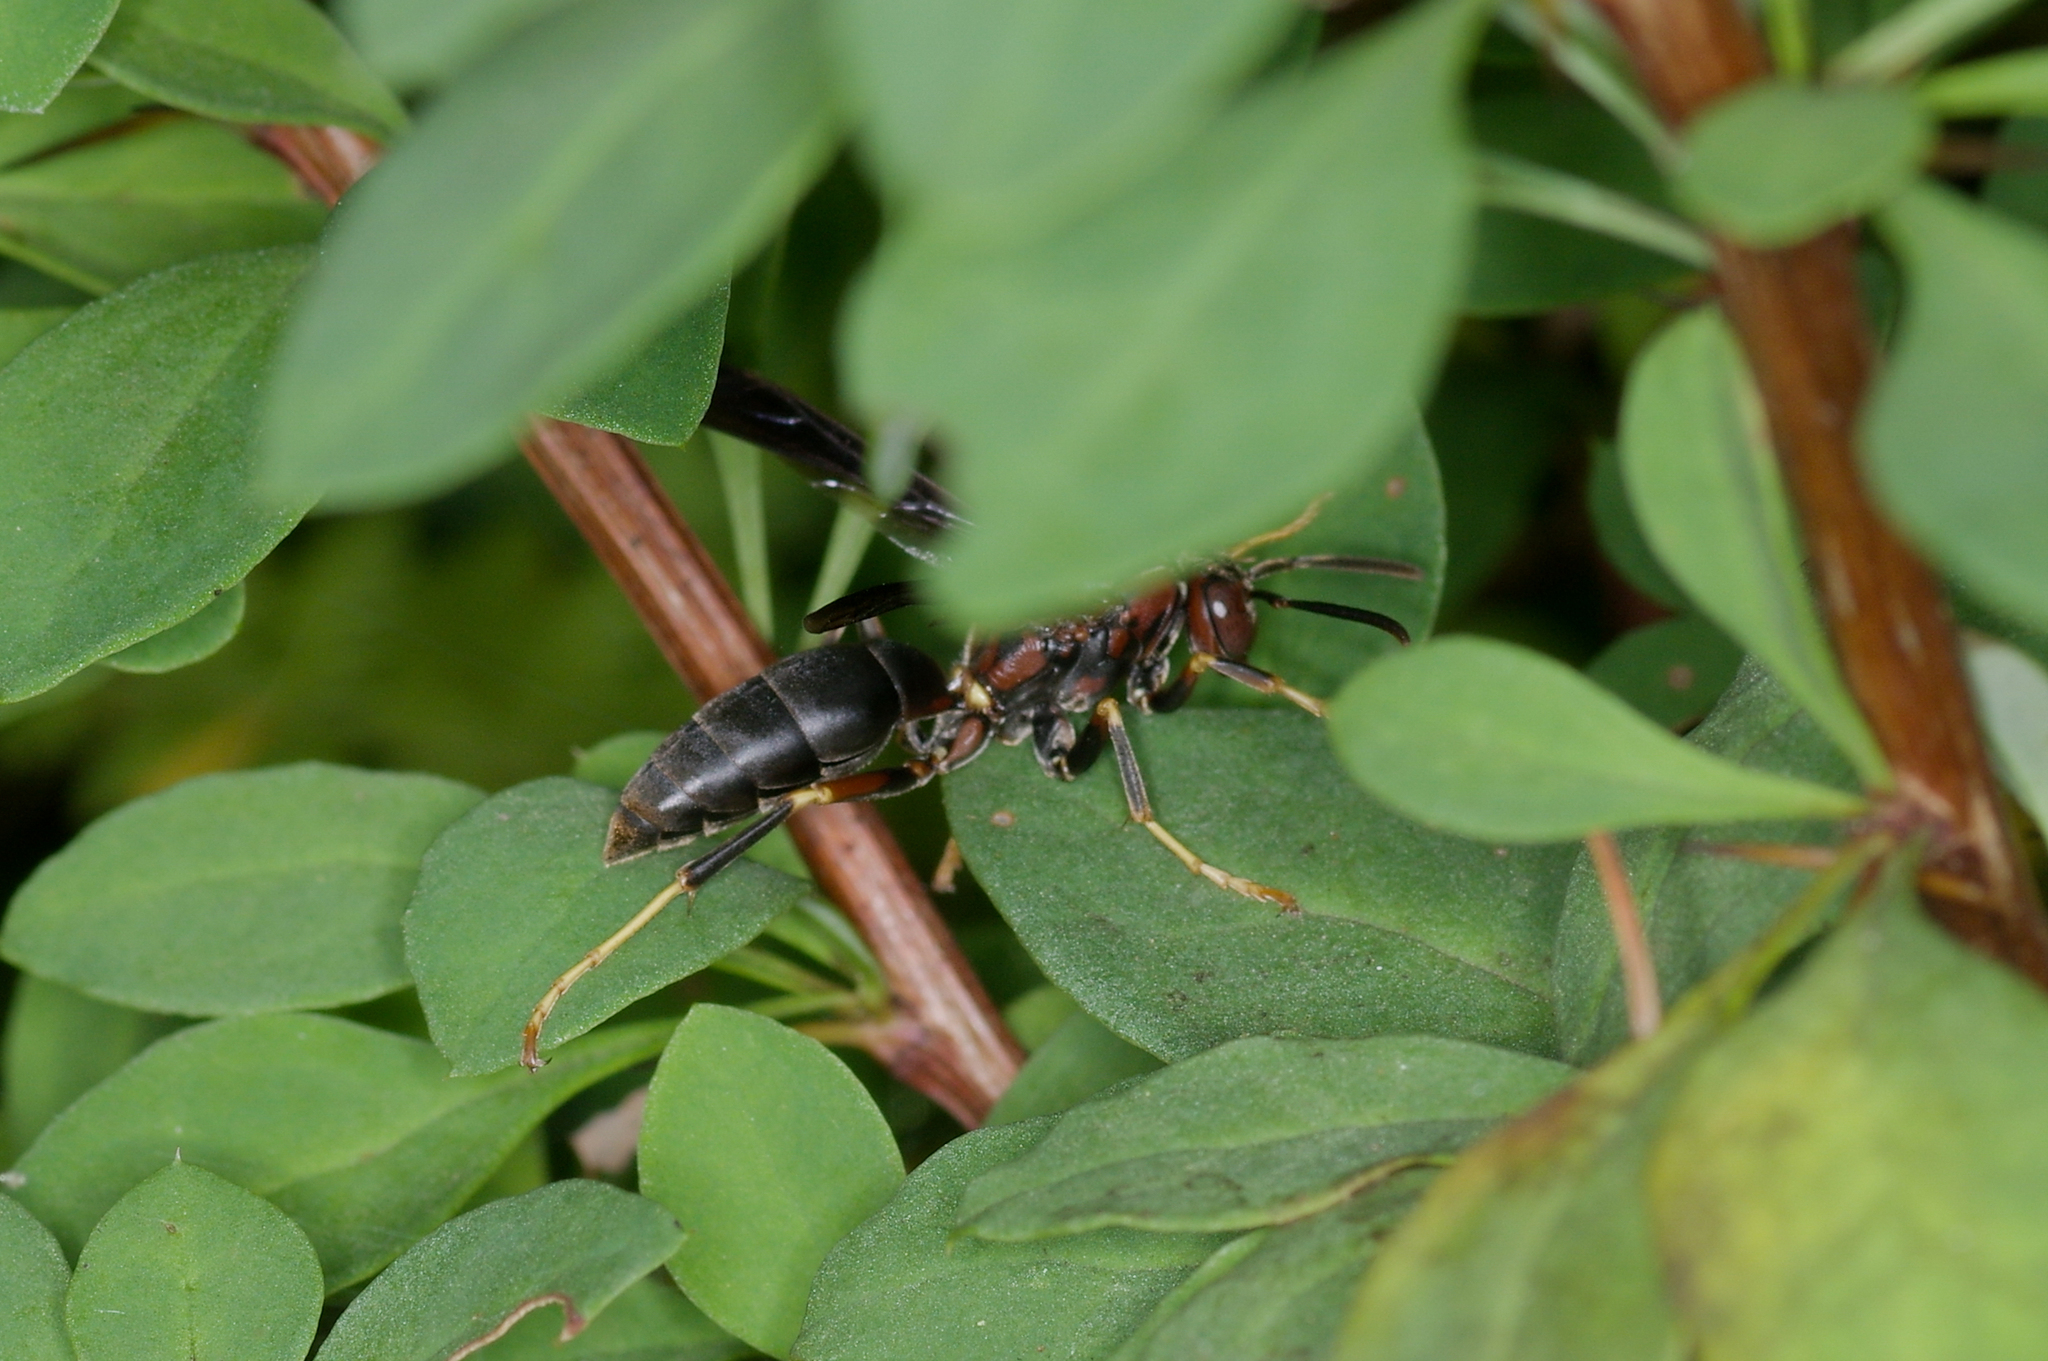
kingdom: Animalia
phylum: Arthropoda
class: Insecta
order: Hymenoptera
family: Eumenidae
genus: Polistes
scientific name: Polistes metricus
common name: Metric paper wasp
